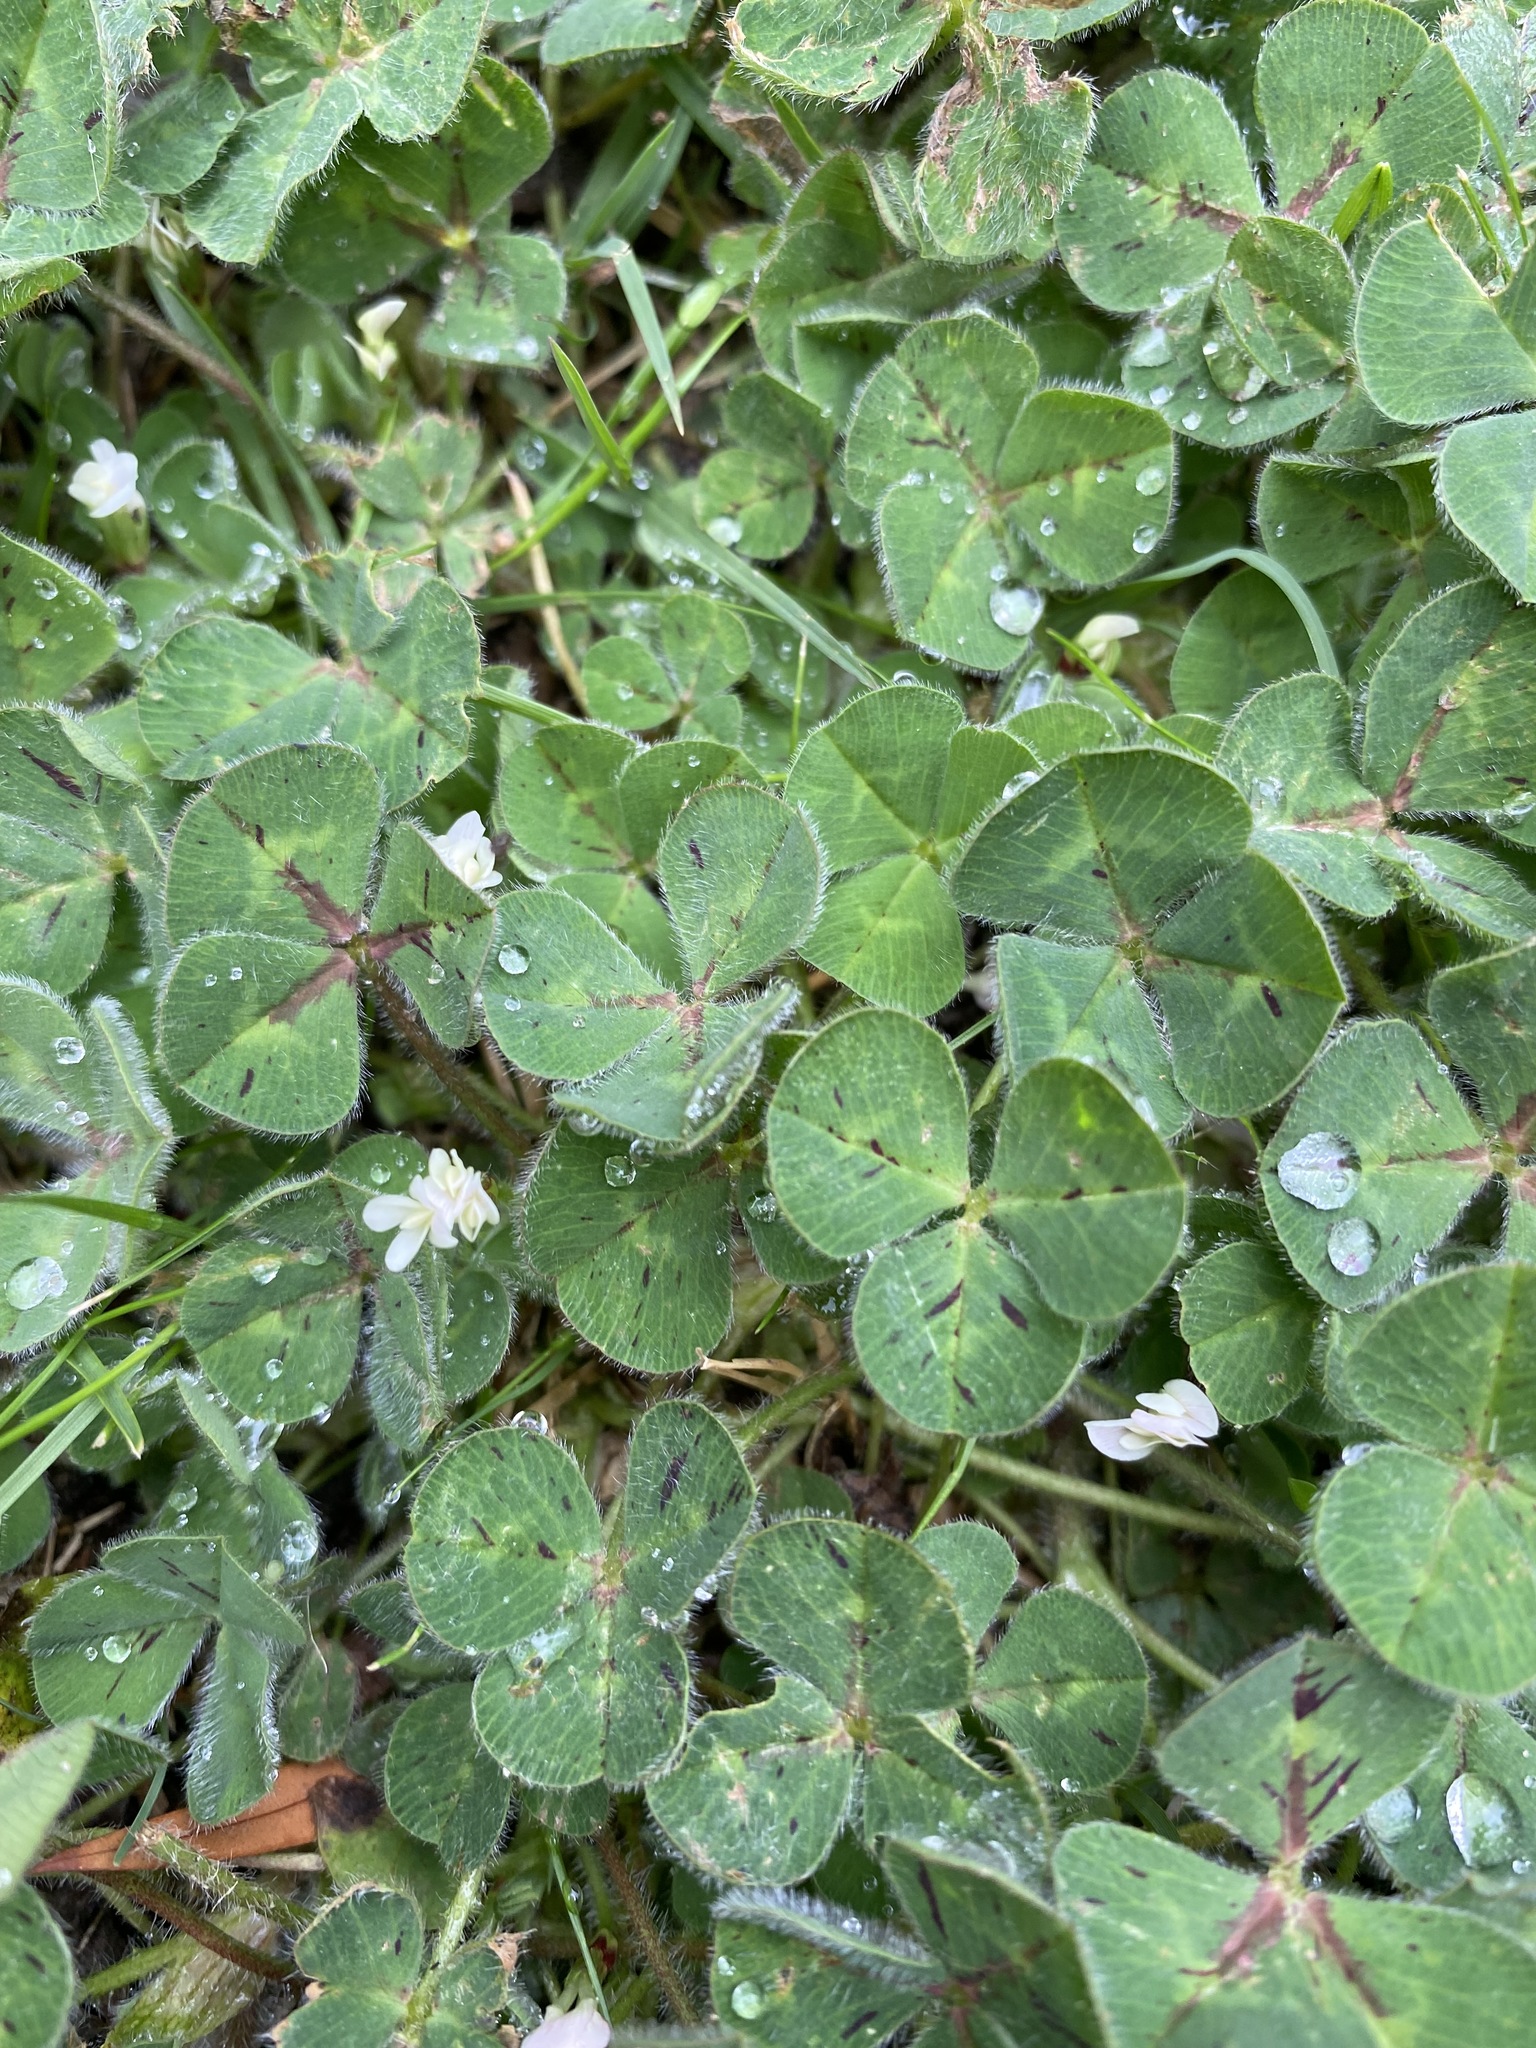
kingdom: Plantae
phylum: Tracheophyta
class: Magnoliopsida
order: Fabales
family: Fabaceae
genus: Trifolium
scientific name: Trifolium subterraneum
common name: Subterranean clover
